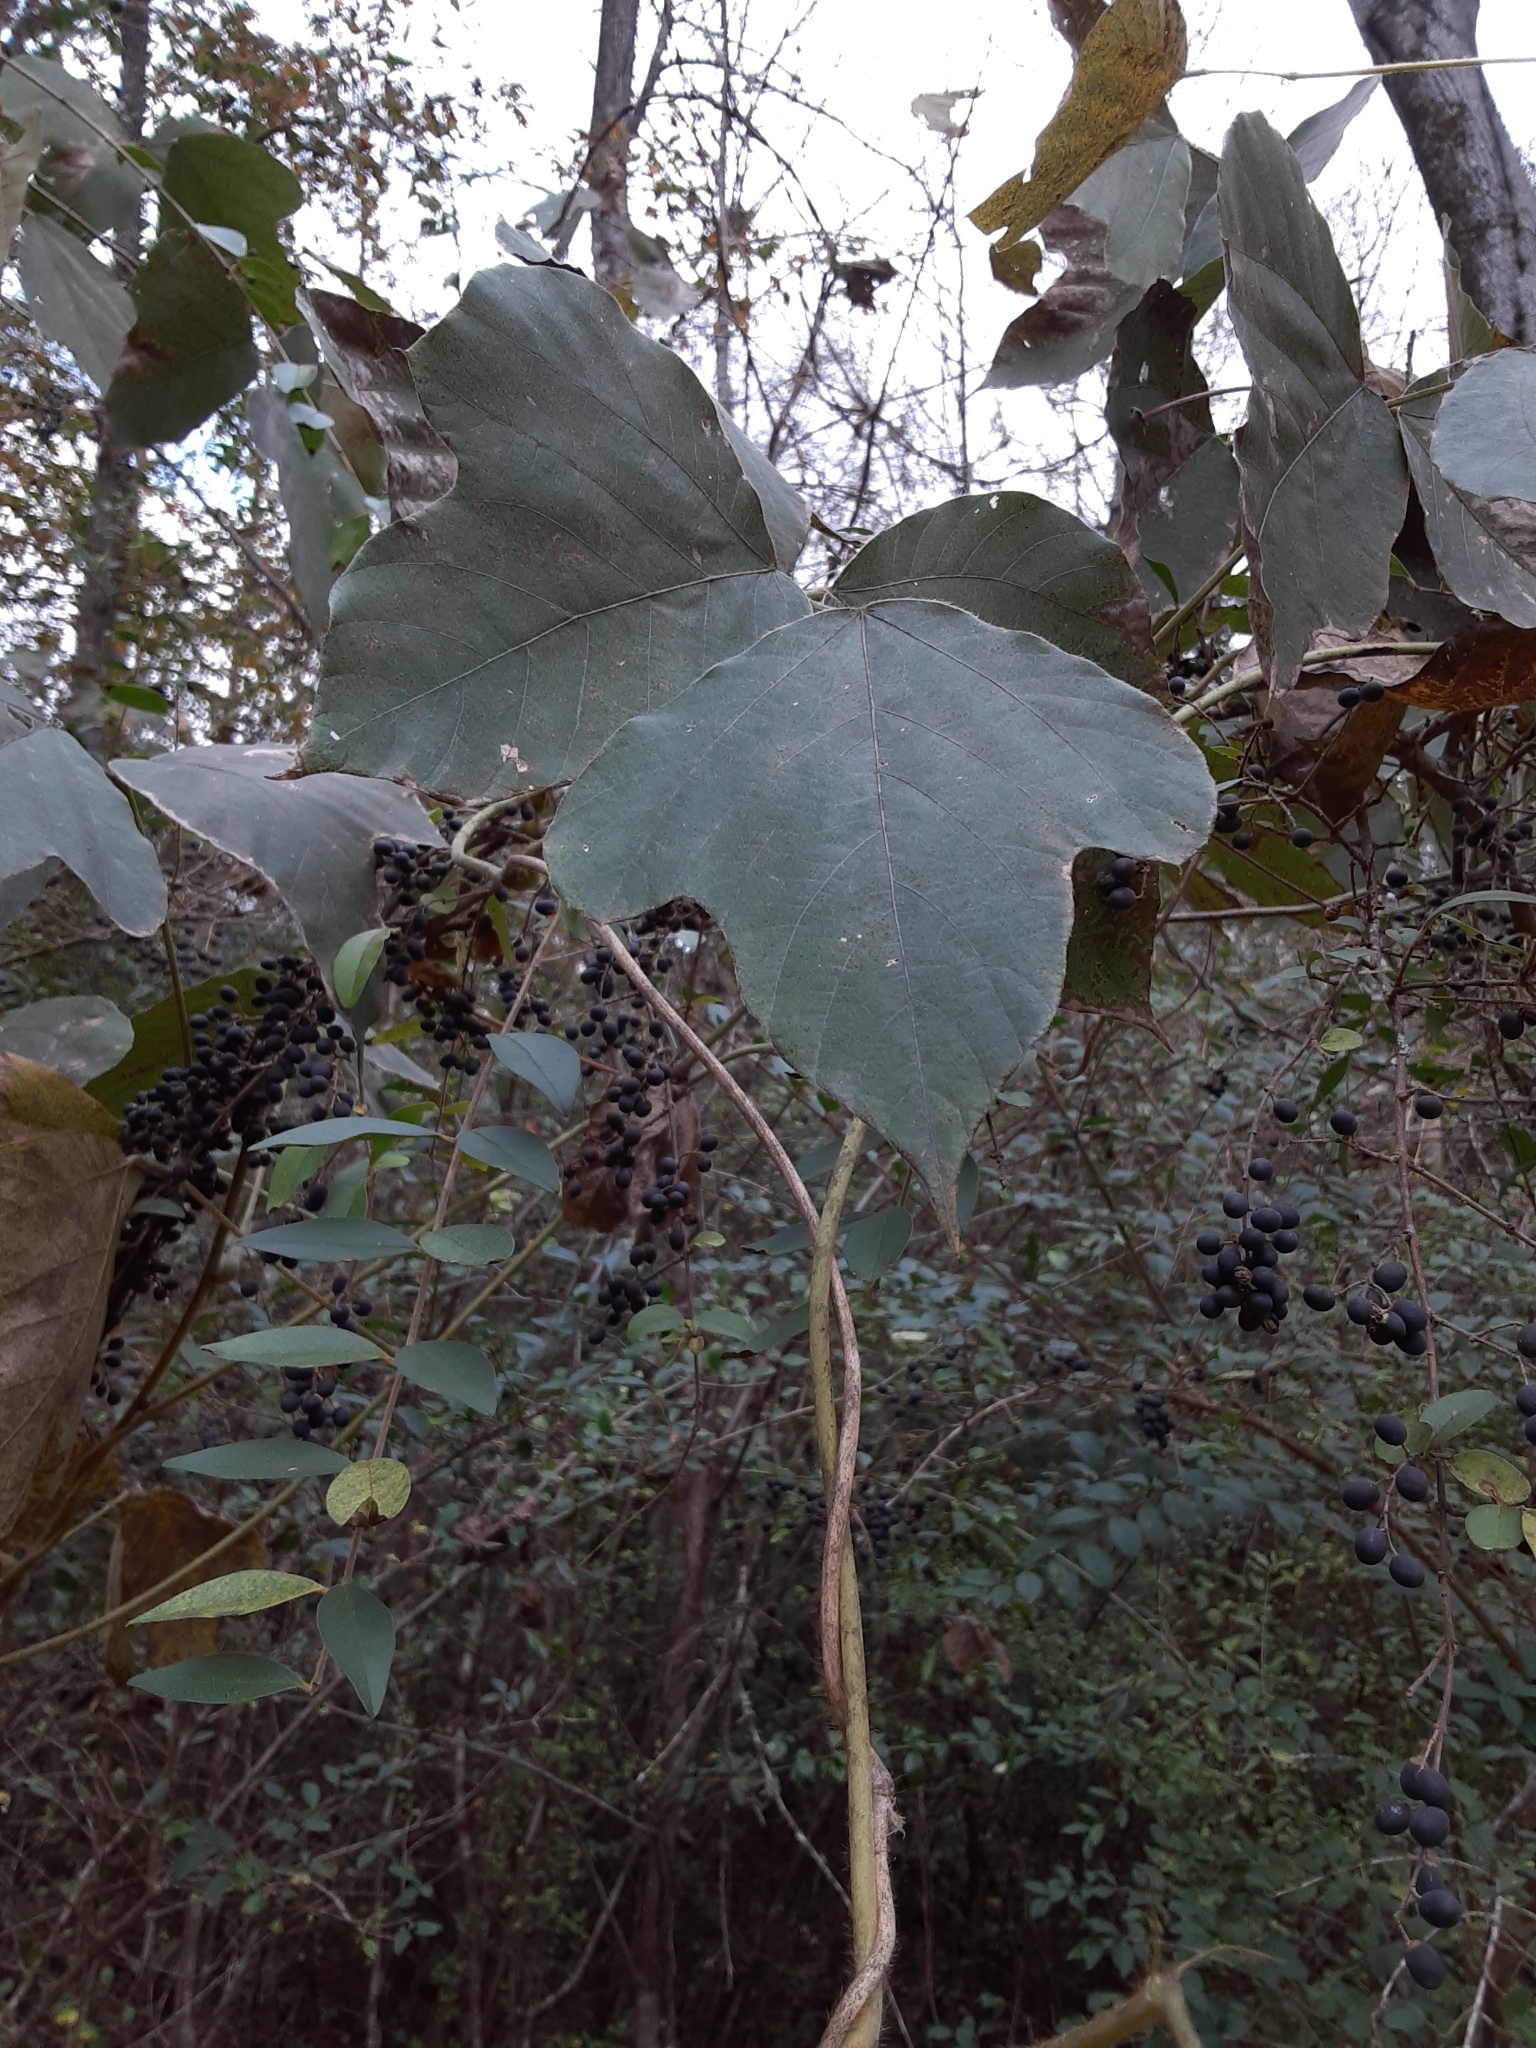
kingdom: Plantae
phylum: Tracheophyta
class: Magnoliopsida
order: Fabales
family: Fabaceae
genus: Pueraria
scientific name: Pueraria montana
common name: Kudzu
